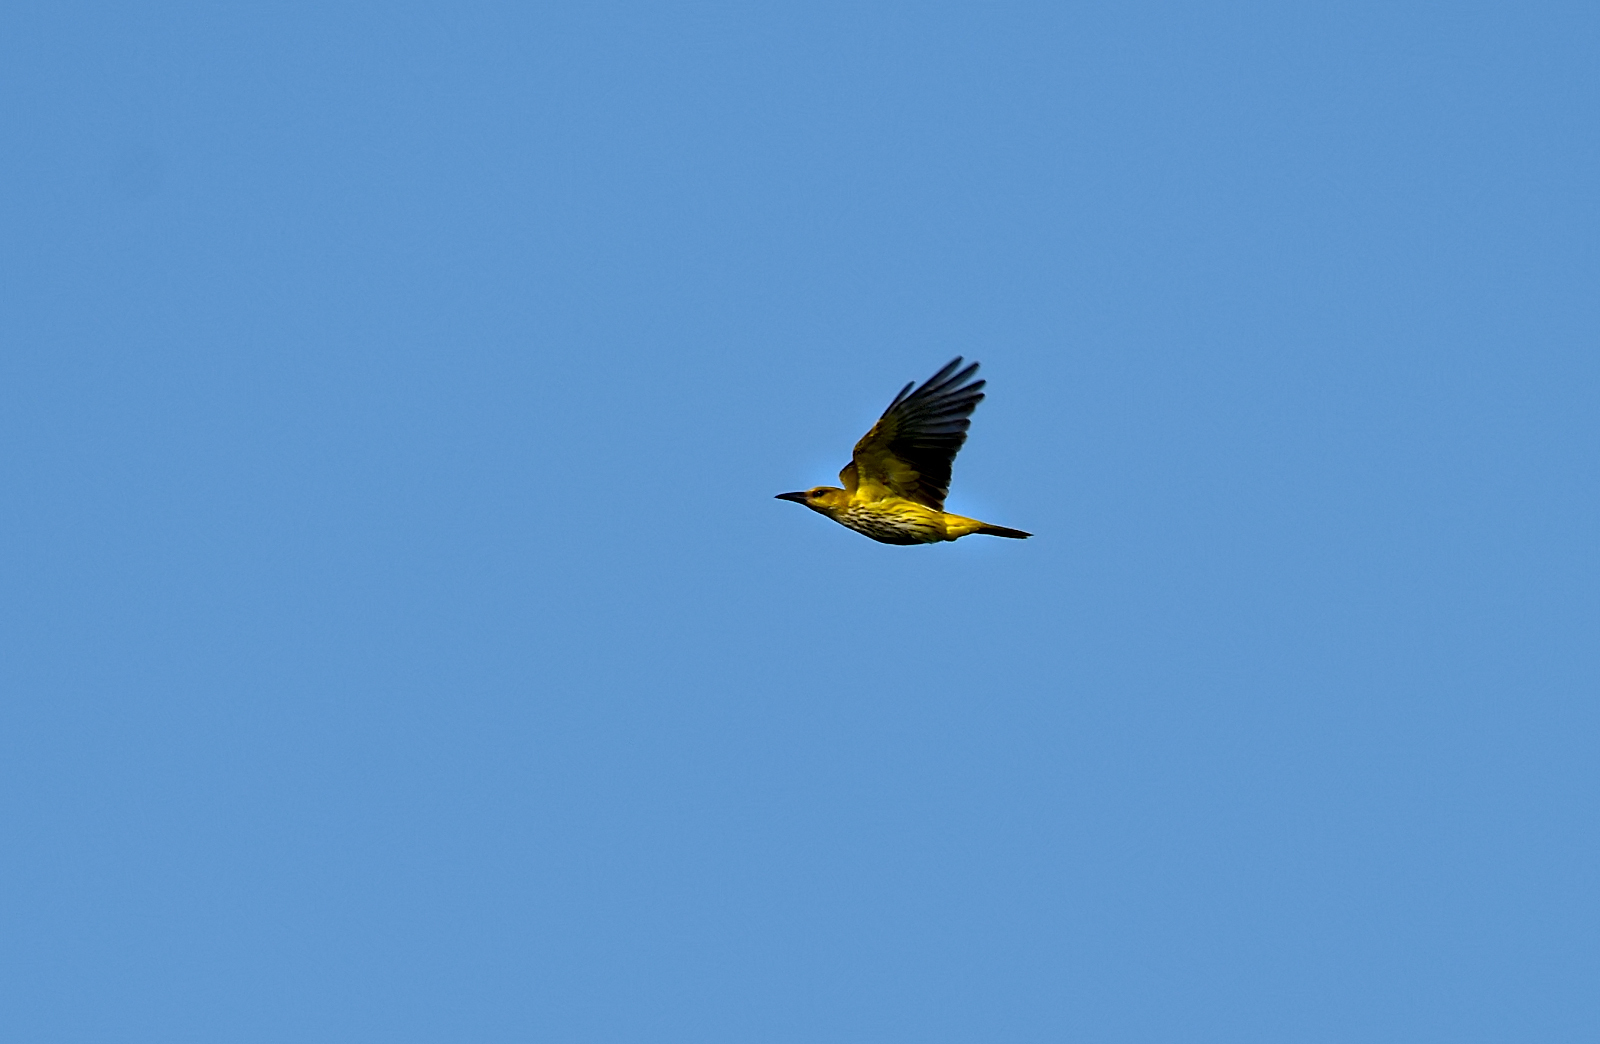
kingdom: Animalia
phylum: Chordata
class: Aves
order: Passeriformes
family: Oriolidae
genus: Oriolus
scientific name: Oriolus kundoo
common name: Indian golden oriole
